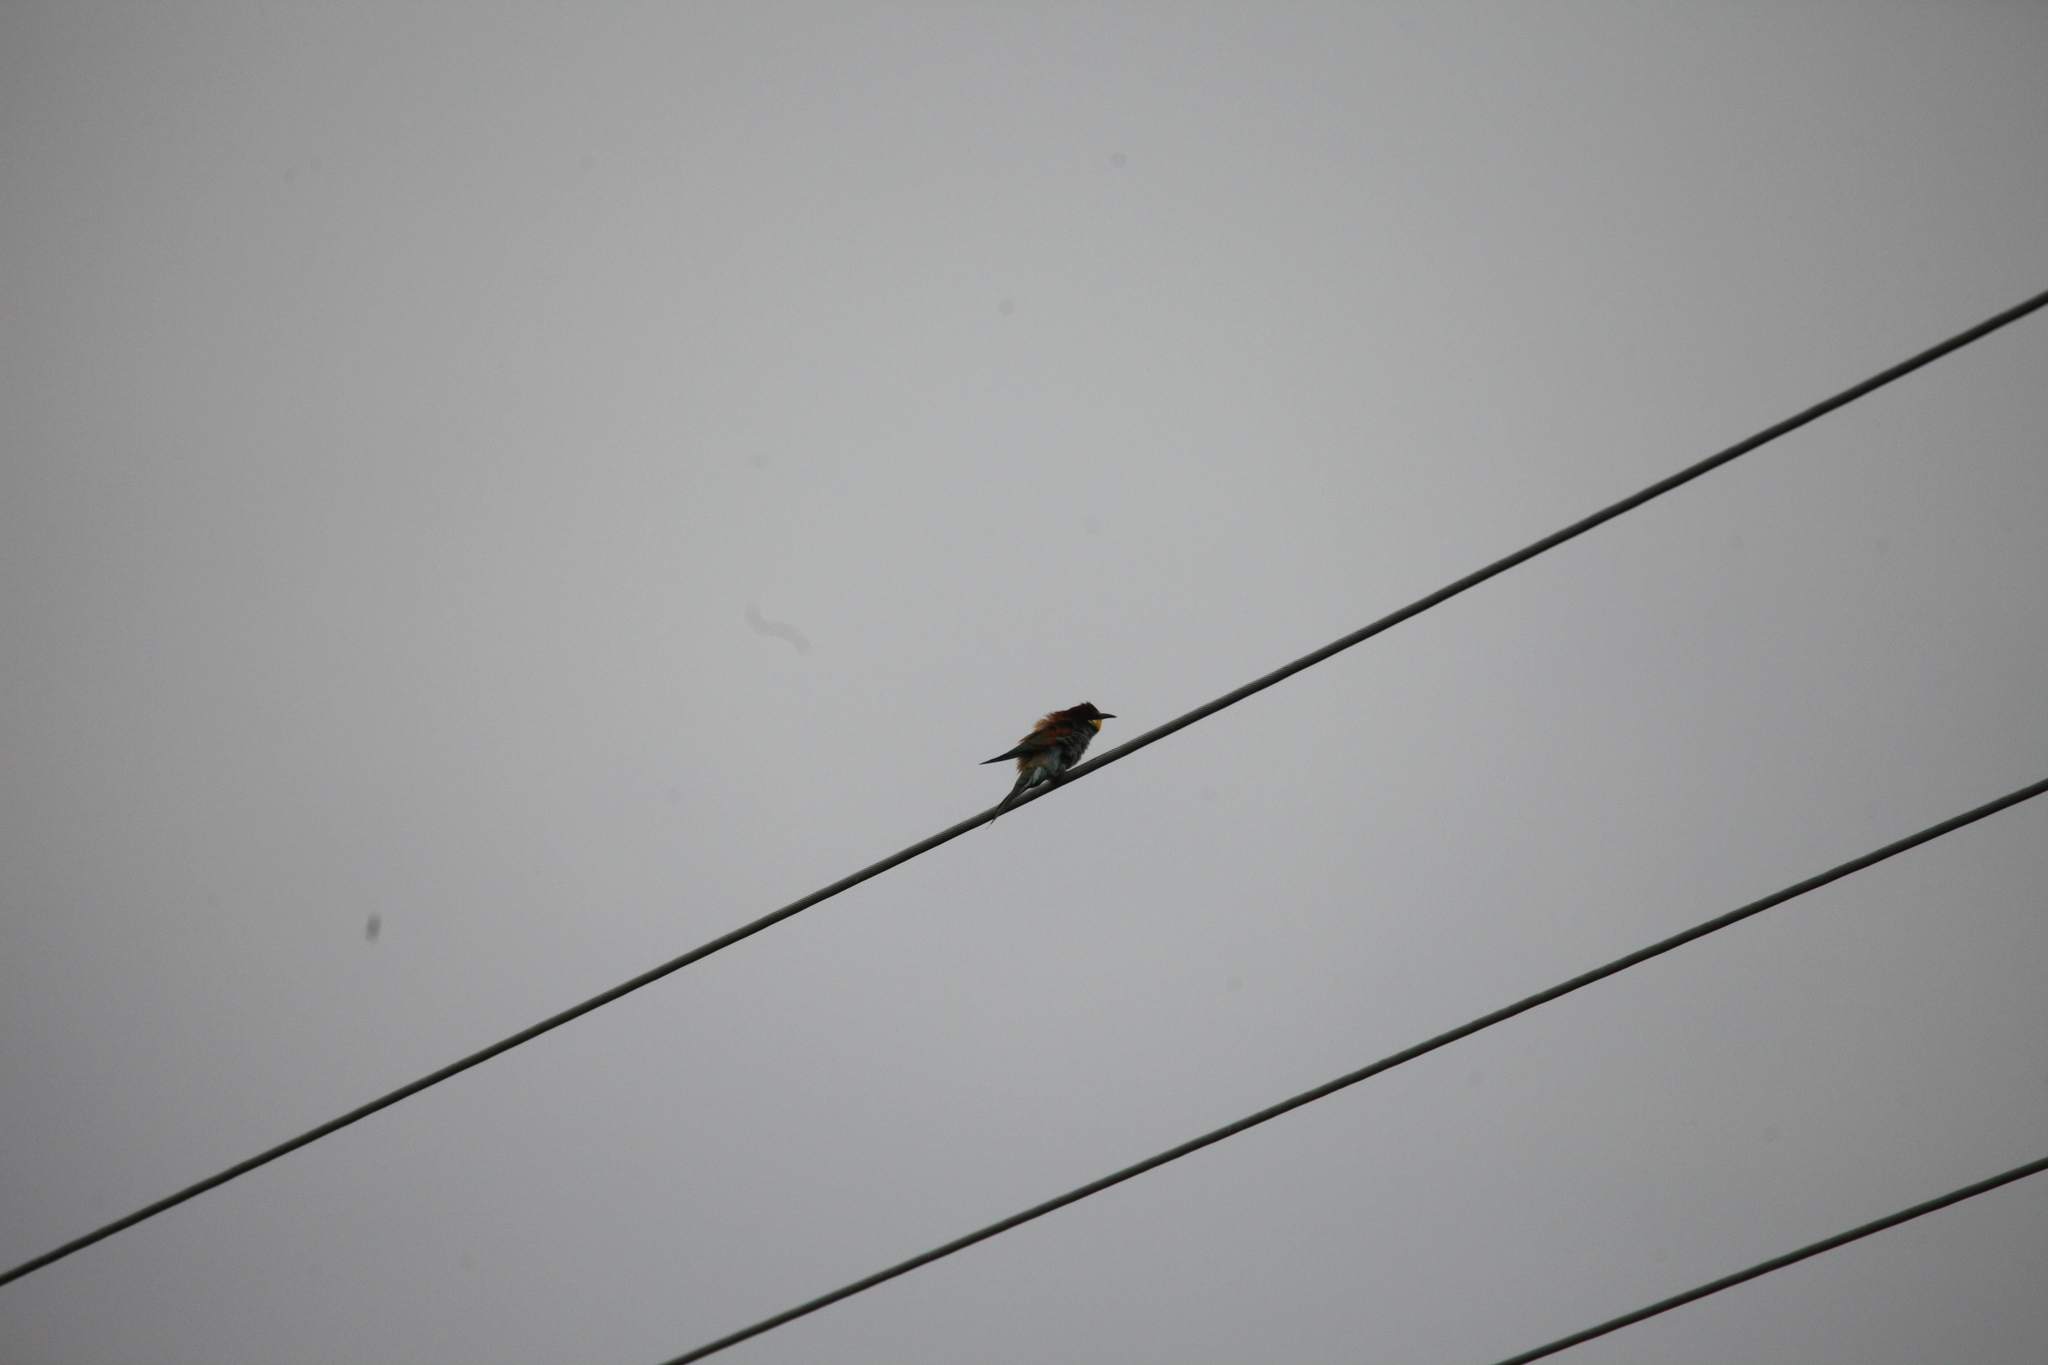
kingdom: Animalia
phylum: Chordata
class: Aves
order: Coraciiformes
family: Meropidae
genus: Merops
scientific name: Merops apiaster
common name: European bee-eater
